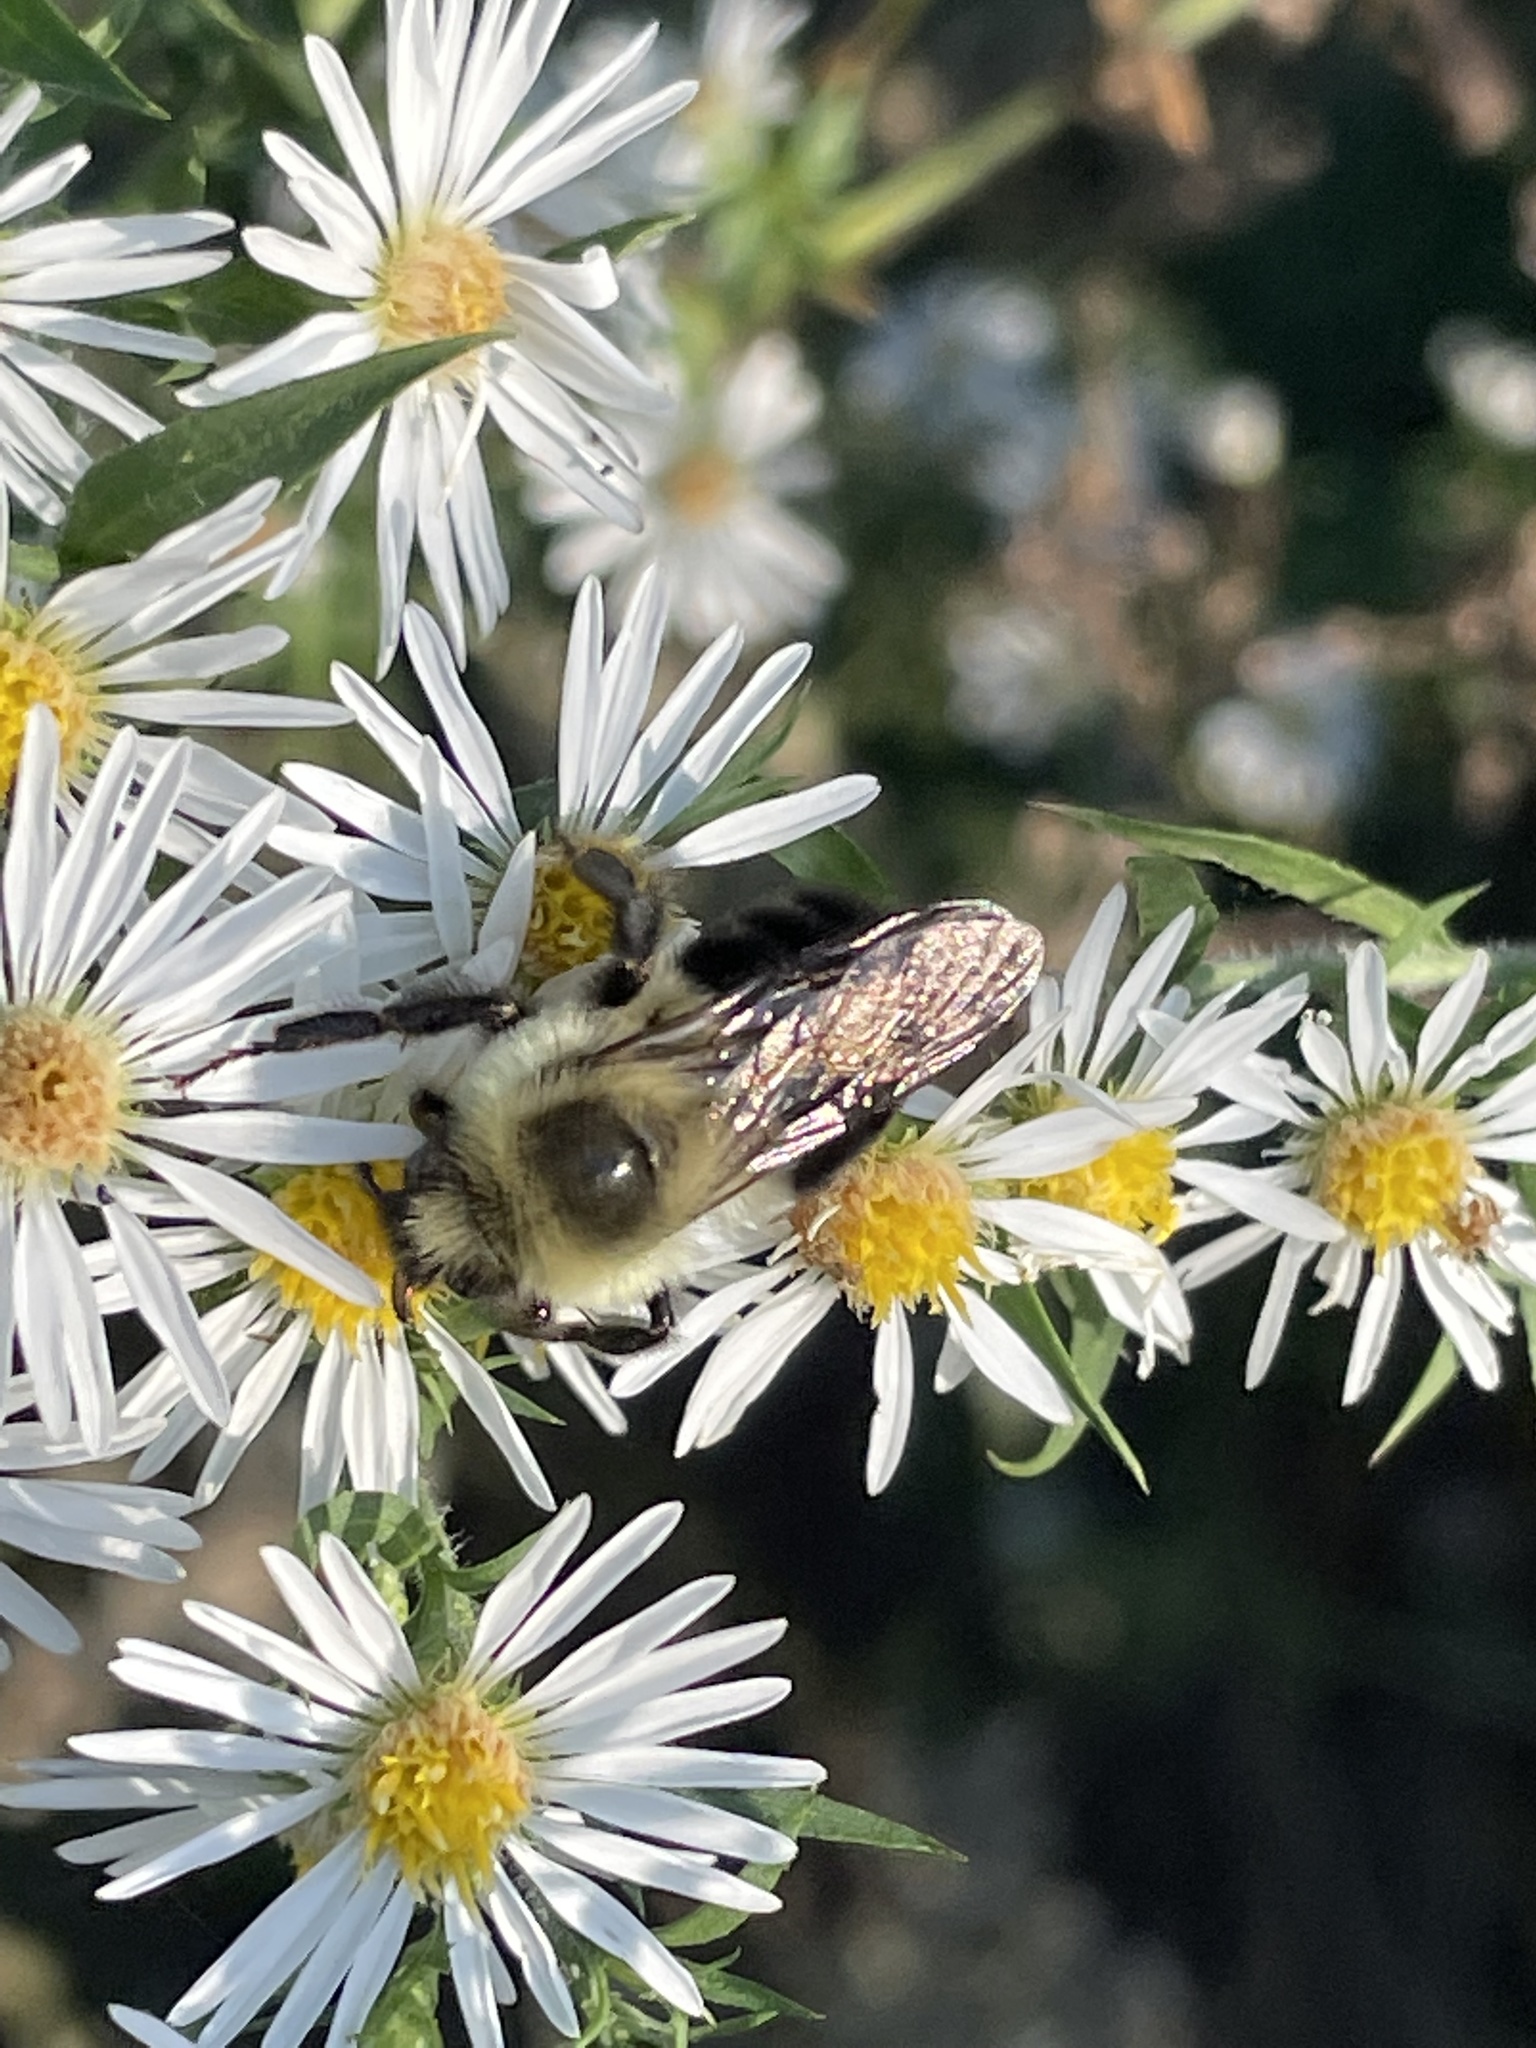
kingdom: Animalia
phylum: Arthropoda
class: Insecta
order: Hymenoptera
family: Apidae
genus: Bombus
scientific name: Bombus impatiens
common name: Common eastern bumble bee
